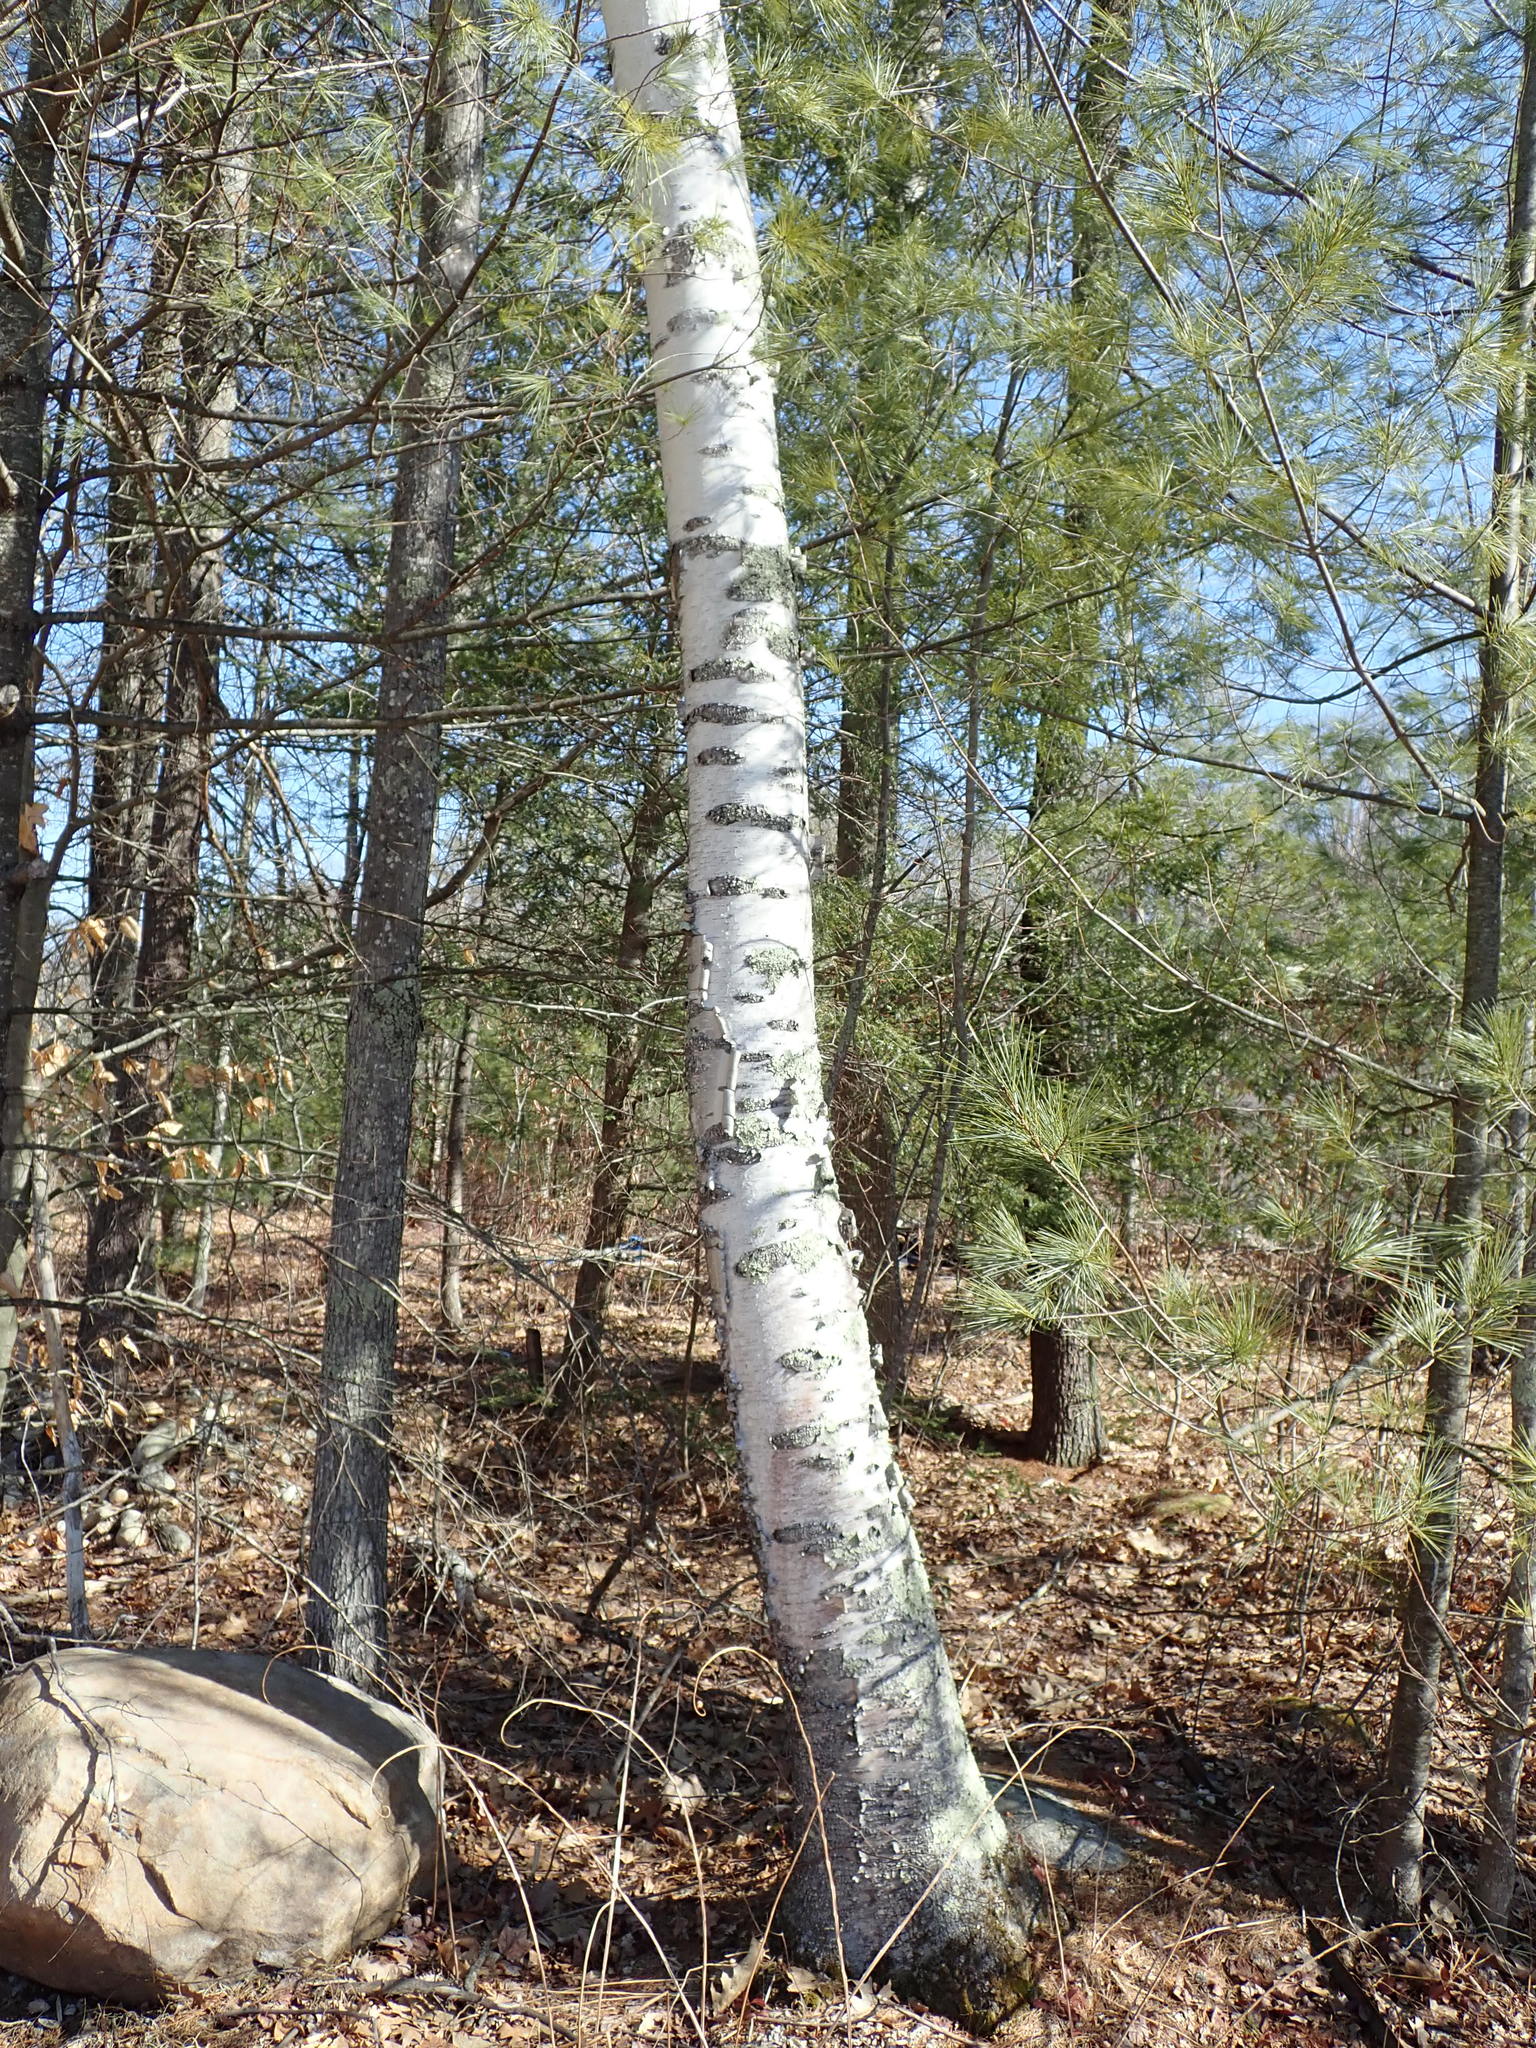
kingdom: Plantae
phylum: Tracheophyta
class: Magnoliopsida
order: Fagales
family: Betulaceae
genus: Betula
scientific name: Betula papyrifera
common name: Paper birch
